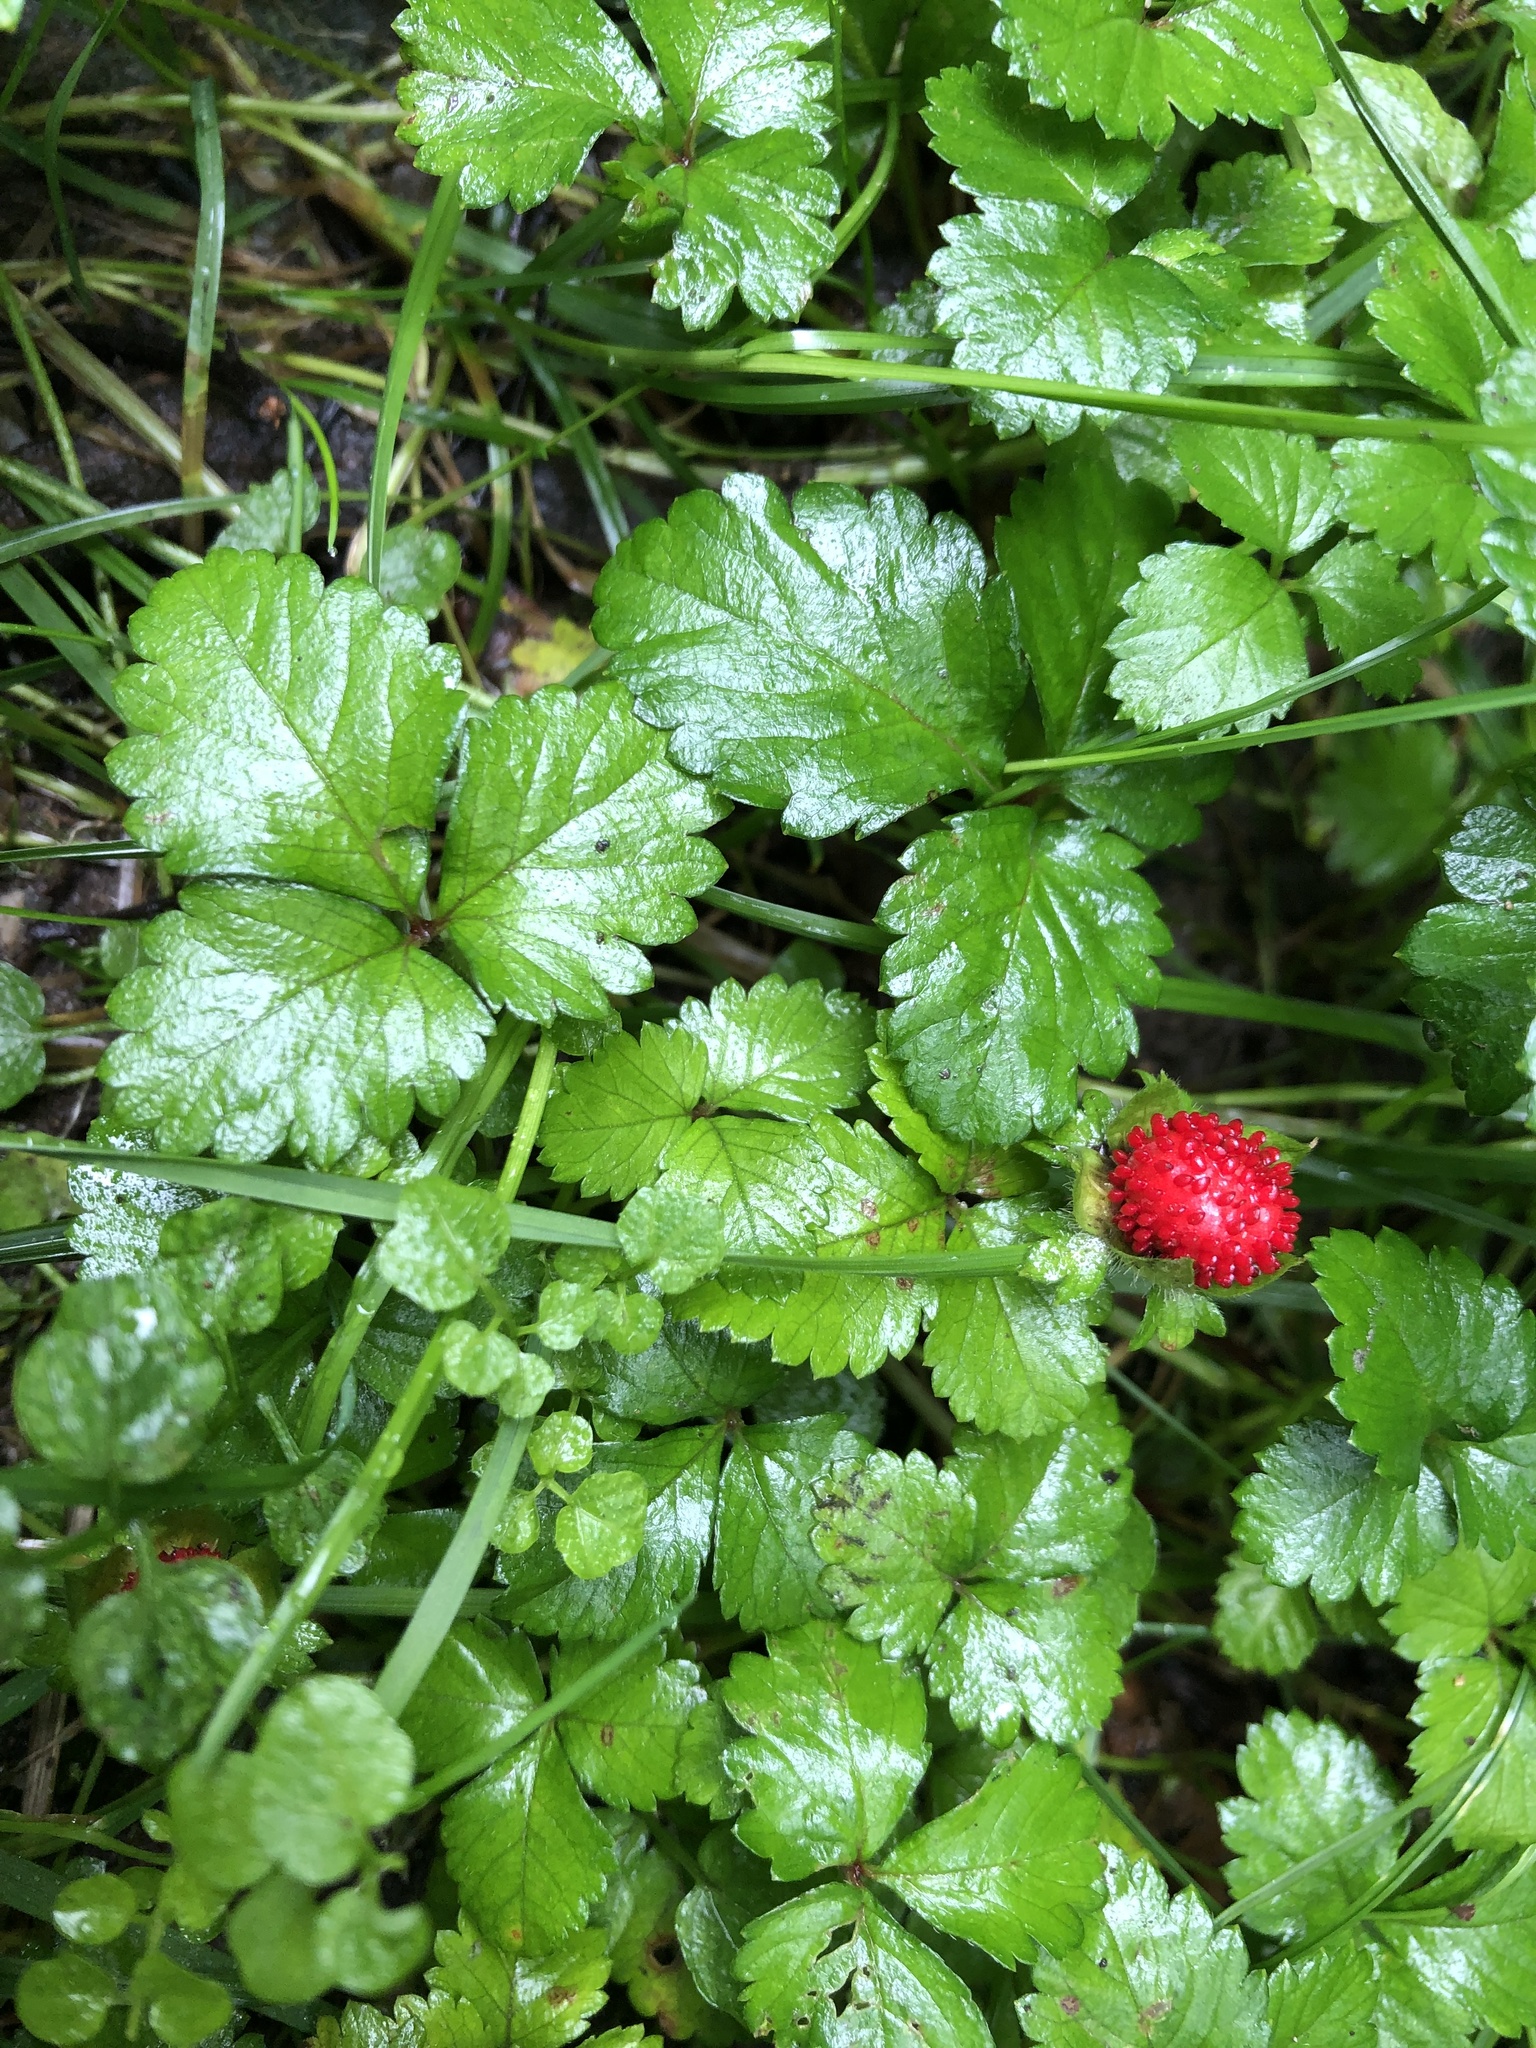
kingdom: Plantae
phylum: Tracheophyta
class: Magnoliopsida
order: Rosales
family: Rosaceae
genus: Potentilla
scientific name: Potentilla indica
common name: Yellow-flowered strawberry
